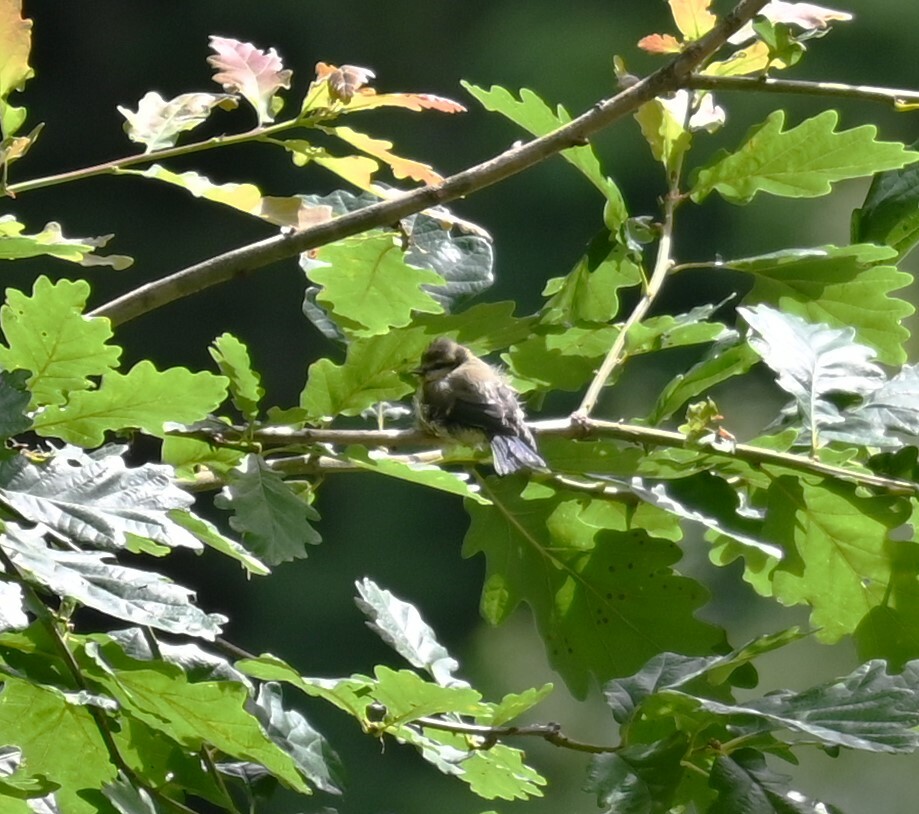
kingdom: Animalia
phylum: Chordata
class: Aves
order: Passeriformes
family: Paridae
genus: Cyanistes
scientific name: Cyanistes caeruleus
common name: Eurasian blue tit
